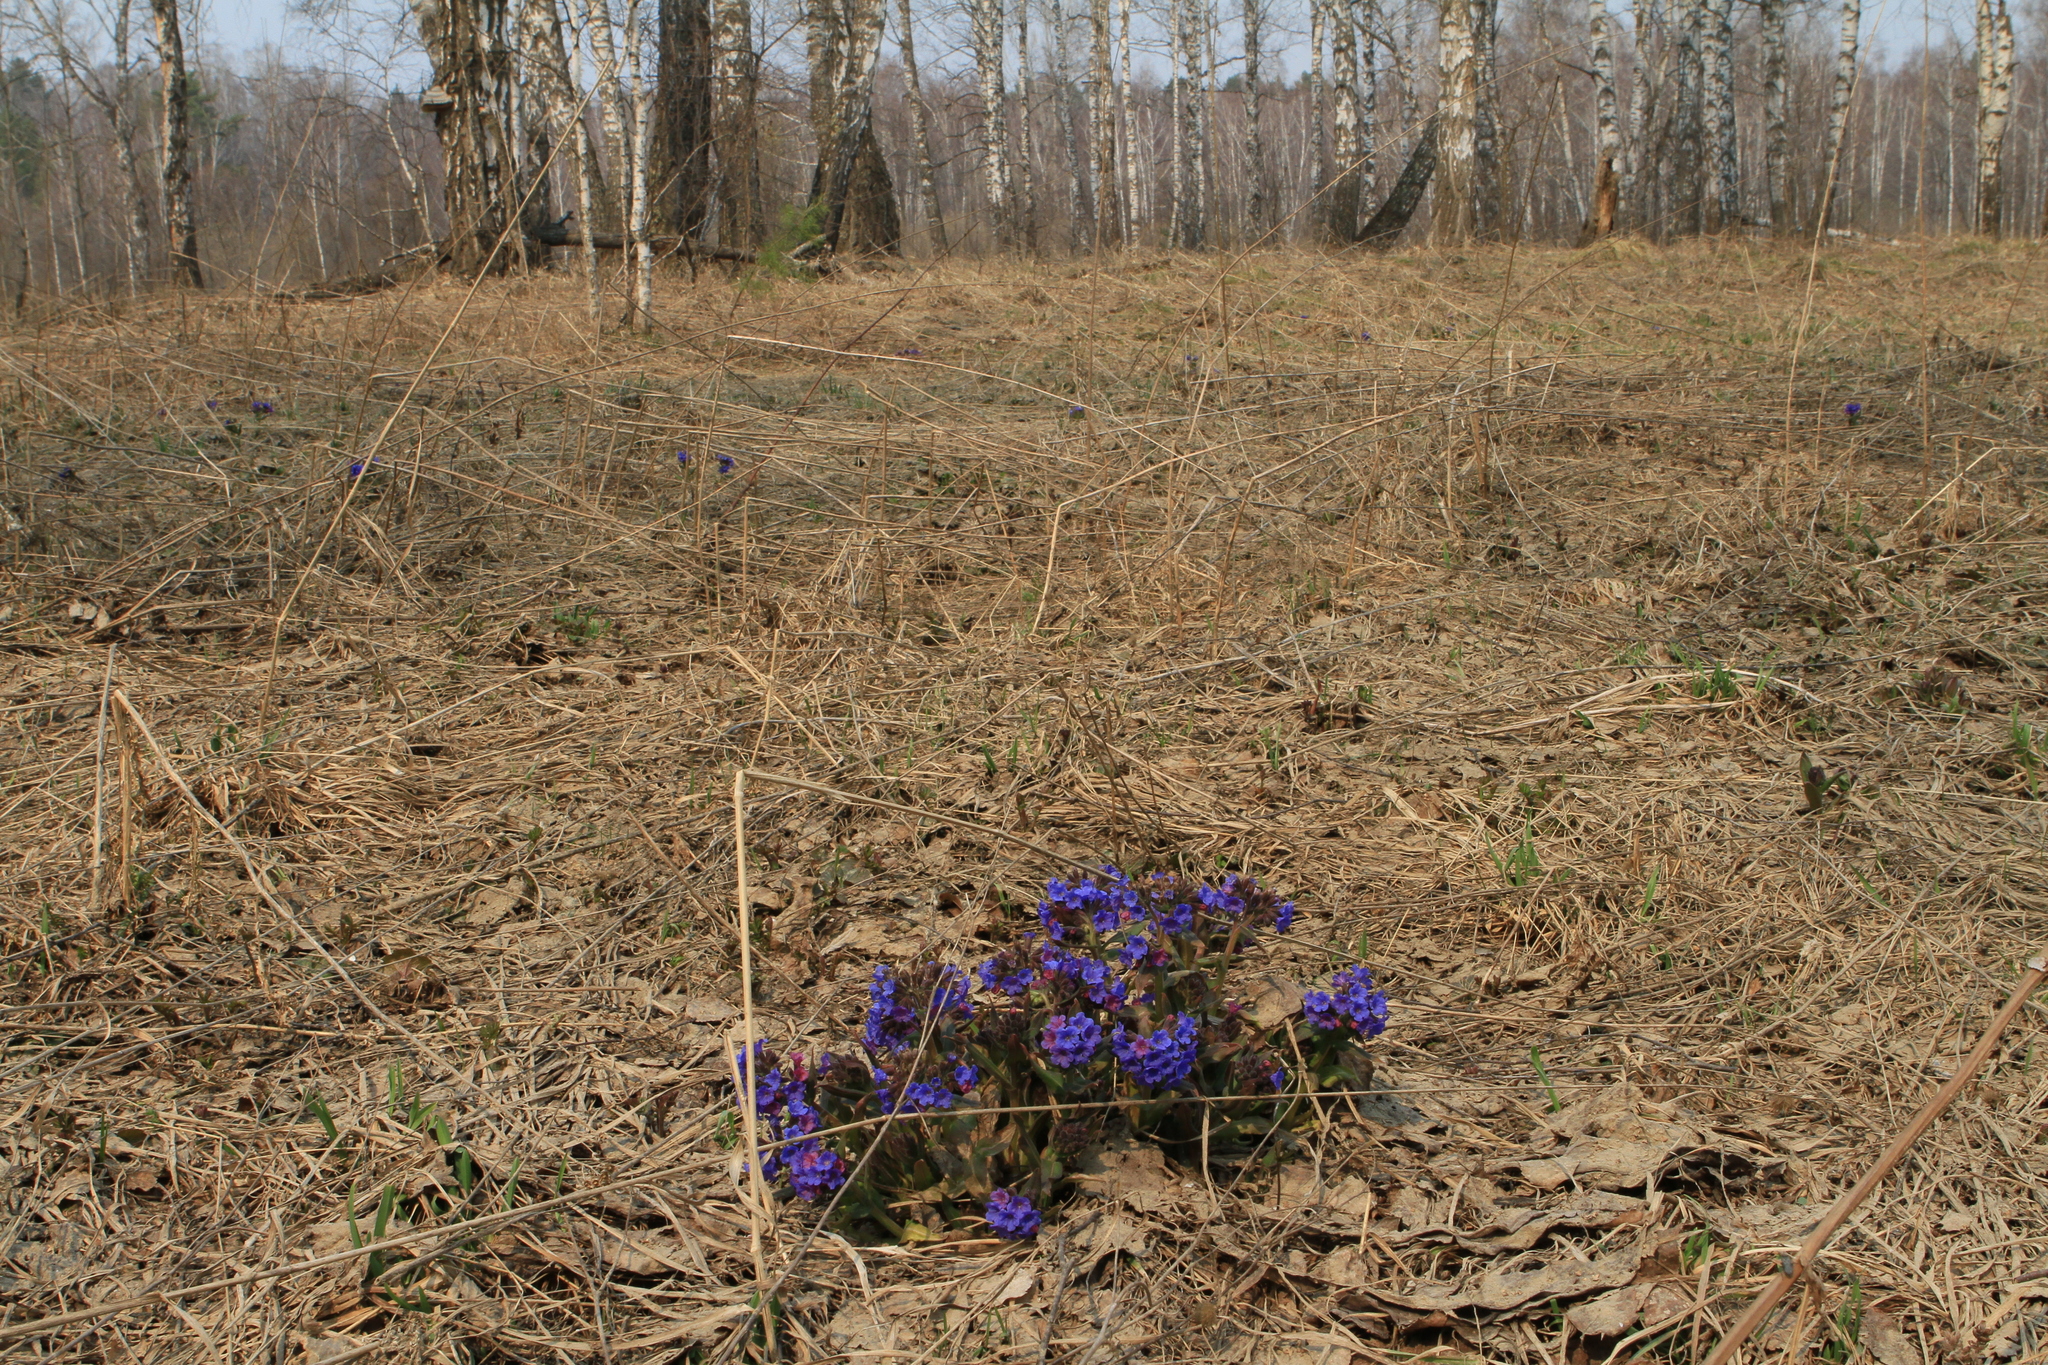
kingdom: Plantae
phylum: Tracheophyta
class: Magnoliopsida
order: Boraginales
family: Boraginaceae
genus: Pulmonaria
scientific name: Pulmonaria mollis
